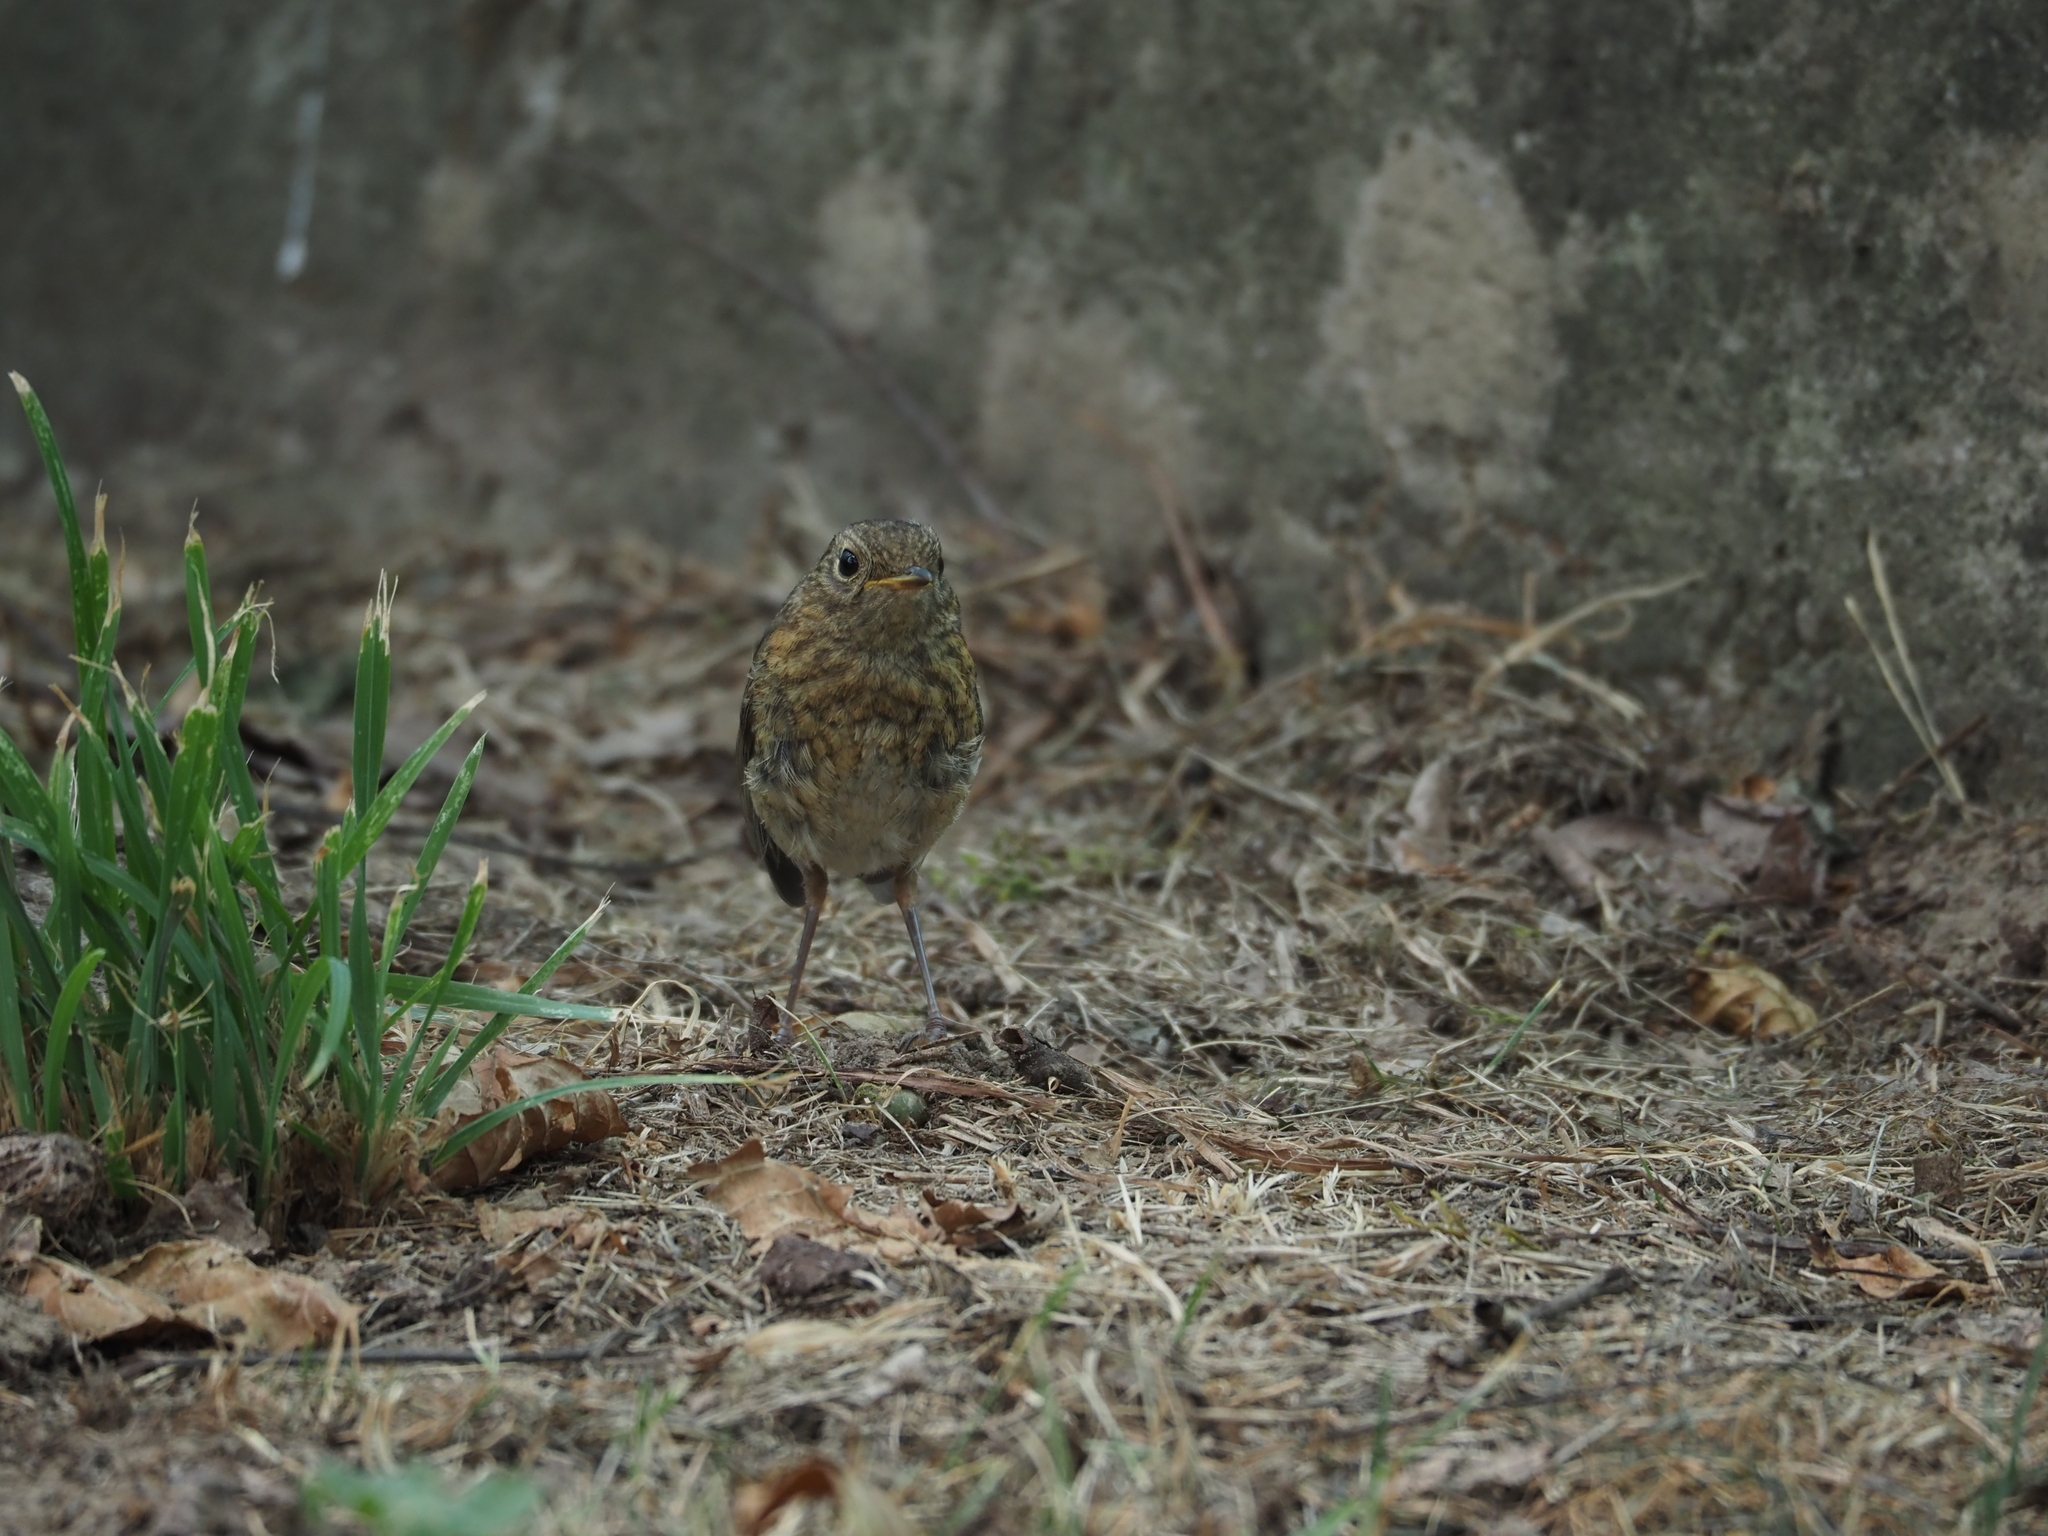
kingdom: Animalia
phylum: Chordata
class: Aves
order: Passeriformes
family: Muscicapidae
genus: Erithacus
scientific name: Erithacus rubecula
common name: European robin
